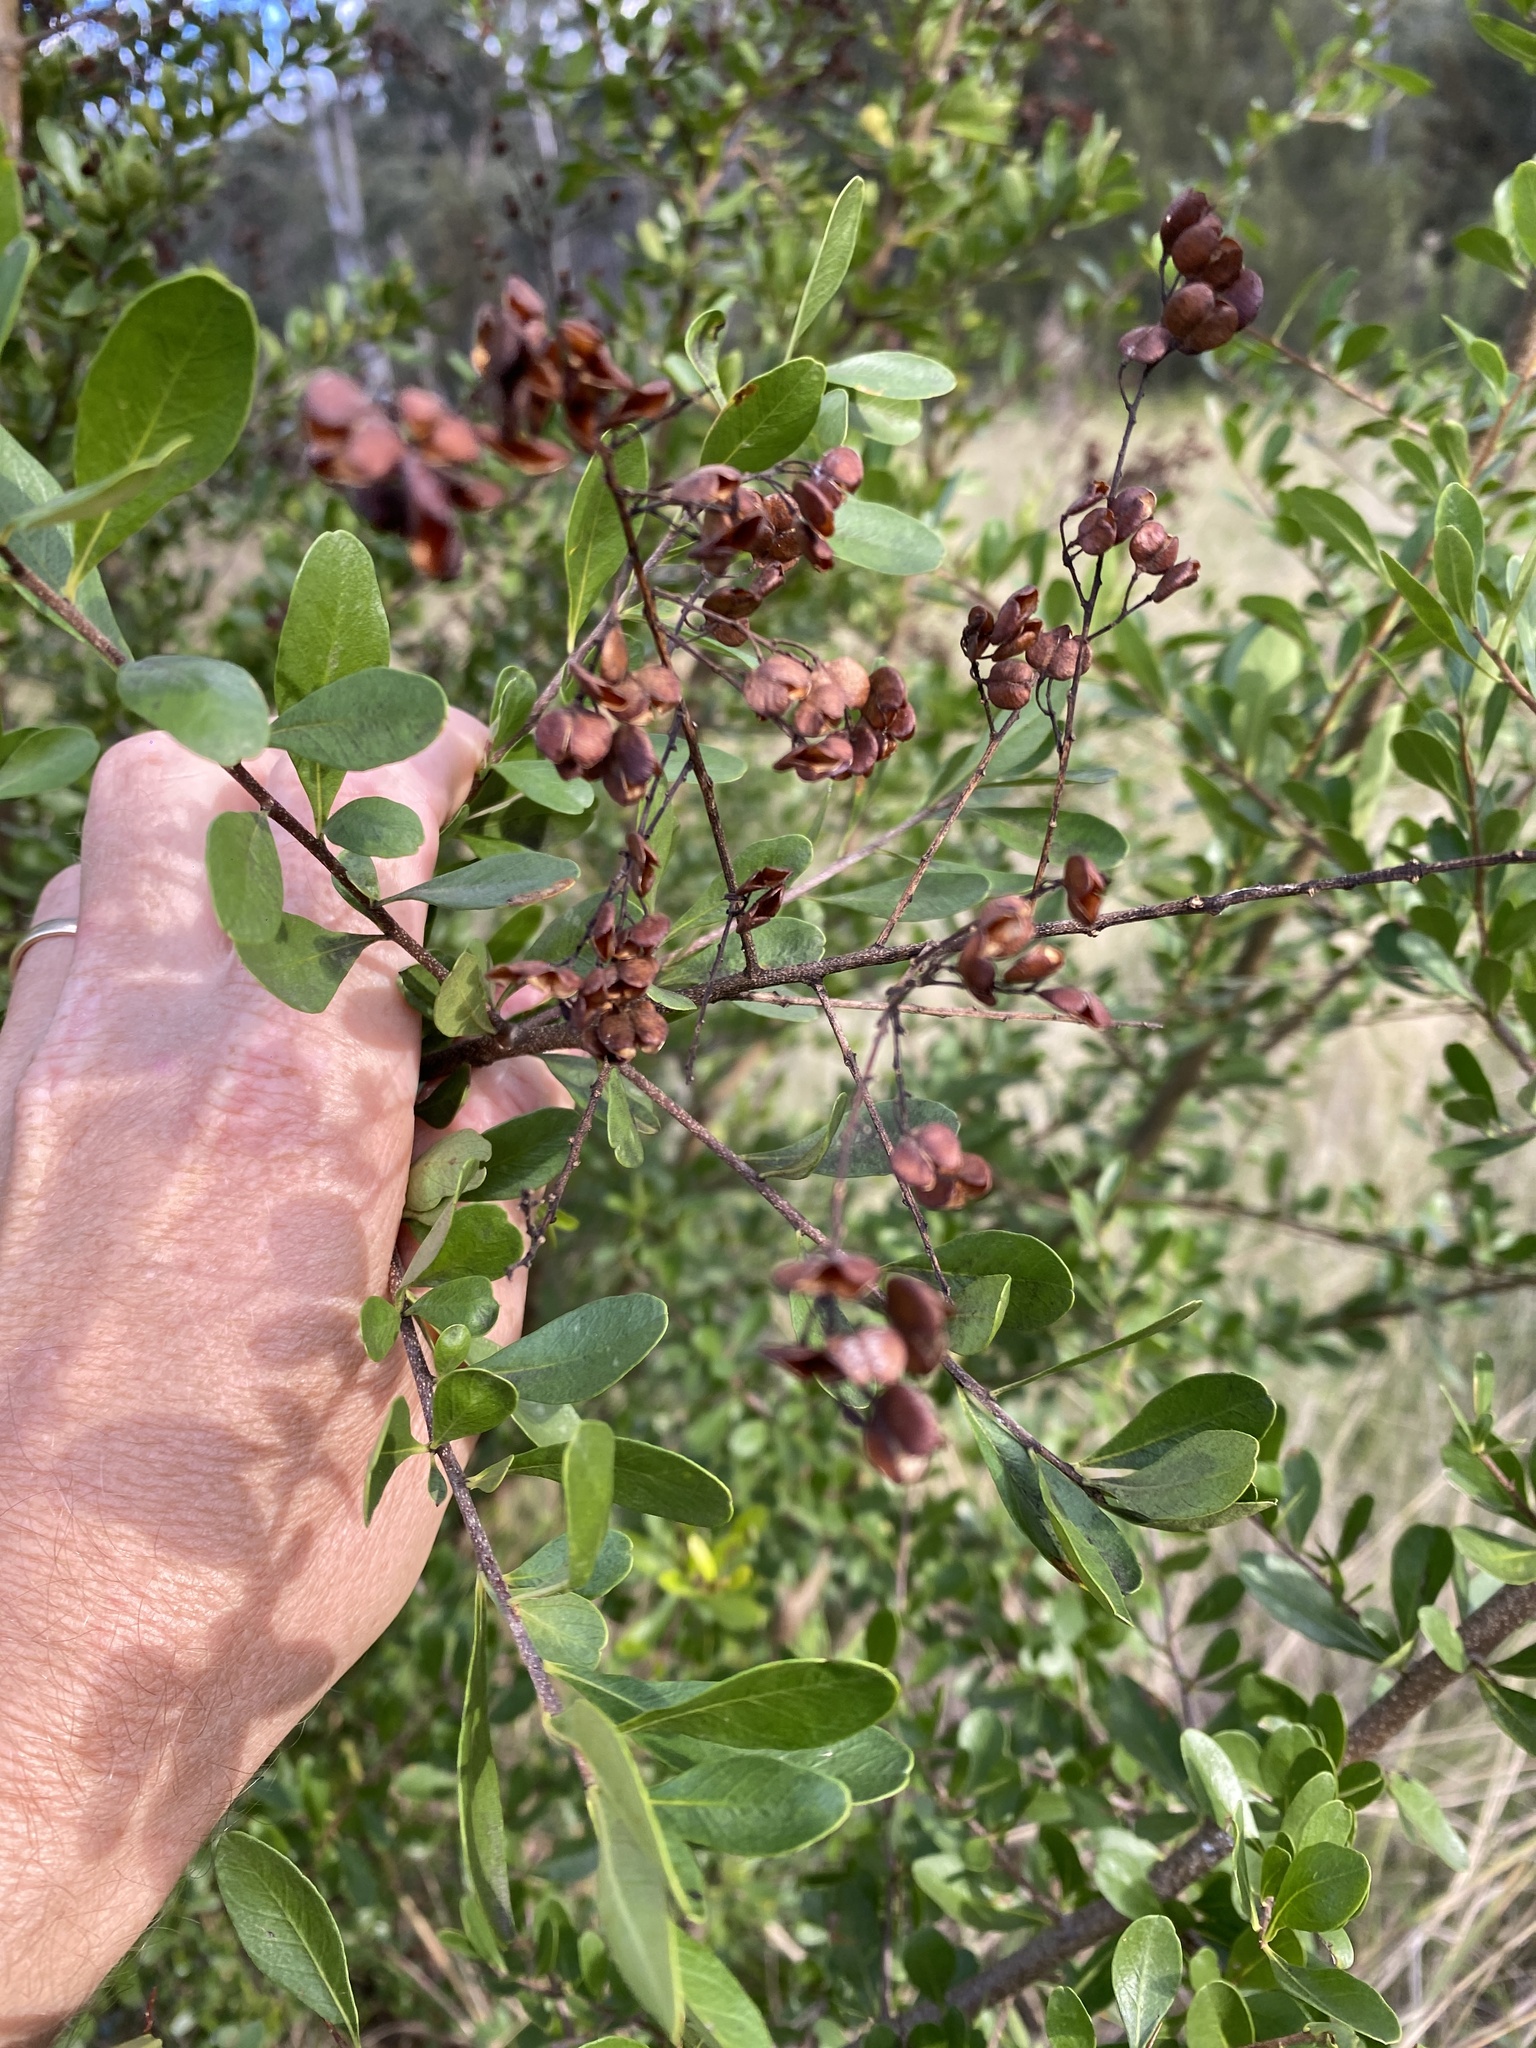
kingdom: Plantae
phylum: Tracheophyta
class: Magnoliopsida
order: Apiales
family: Pittosporaceae
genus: Bursaria
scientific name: Bursaria spinosa
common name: Australian blackthorn
